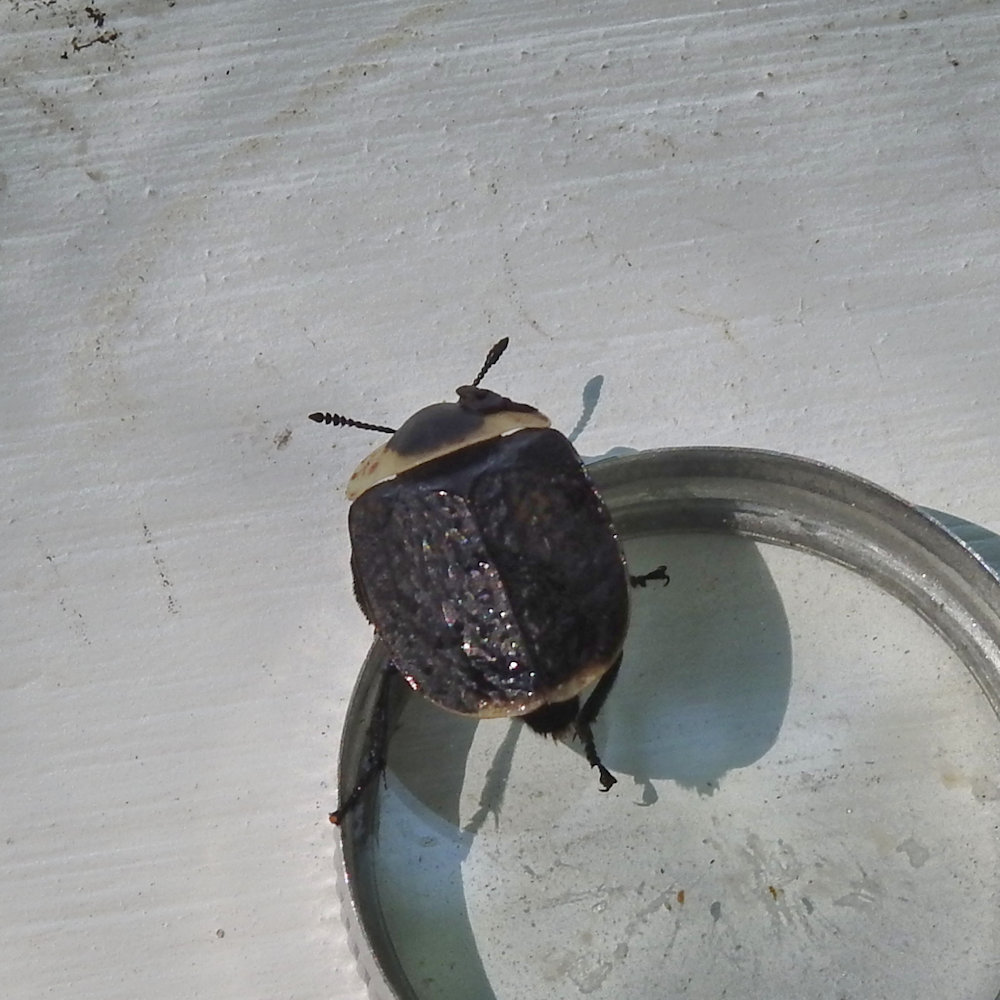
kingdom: Animalia
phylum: Arthropoda
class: Insecta
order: Coleoptera
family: Staphylinidae
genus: Necrophila
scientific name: Necrophila americana
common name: American carrion beetle
